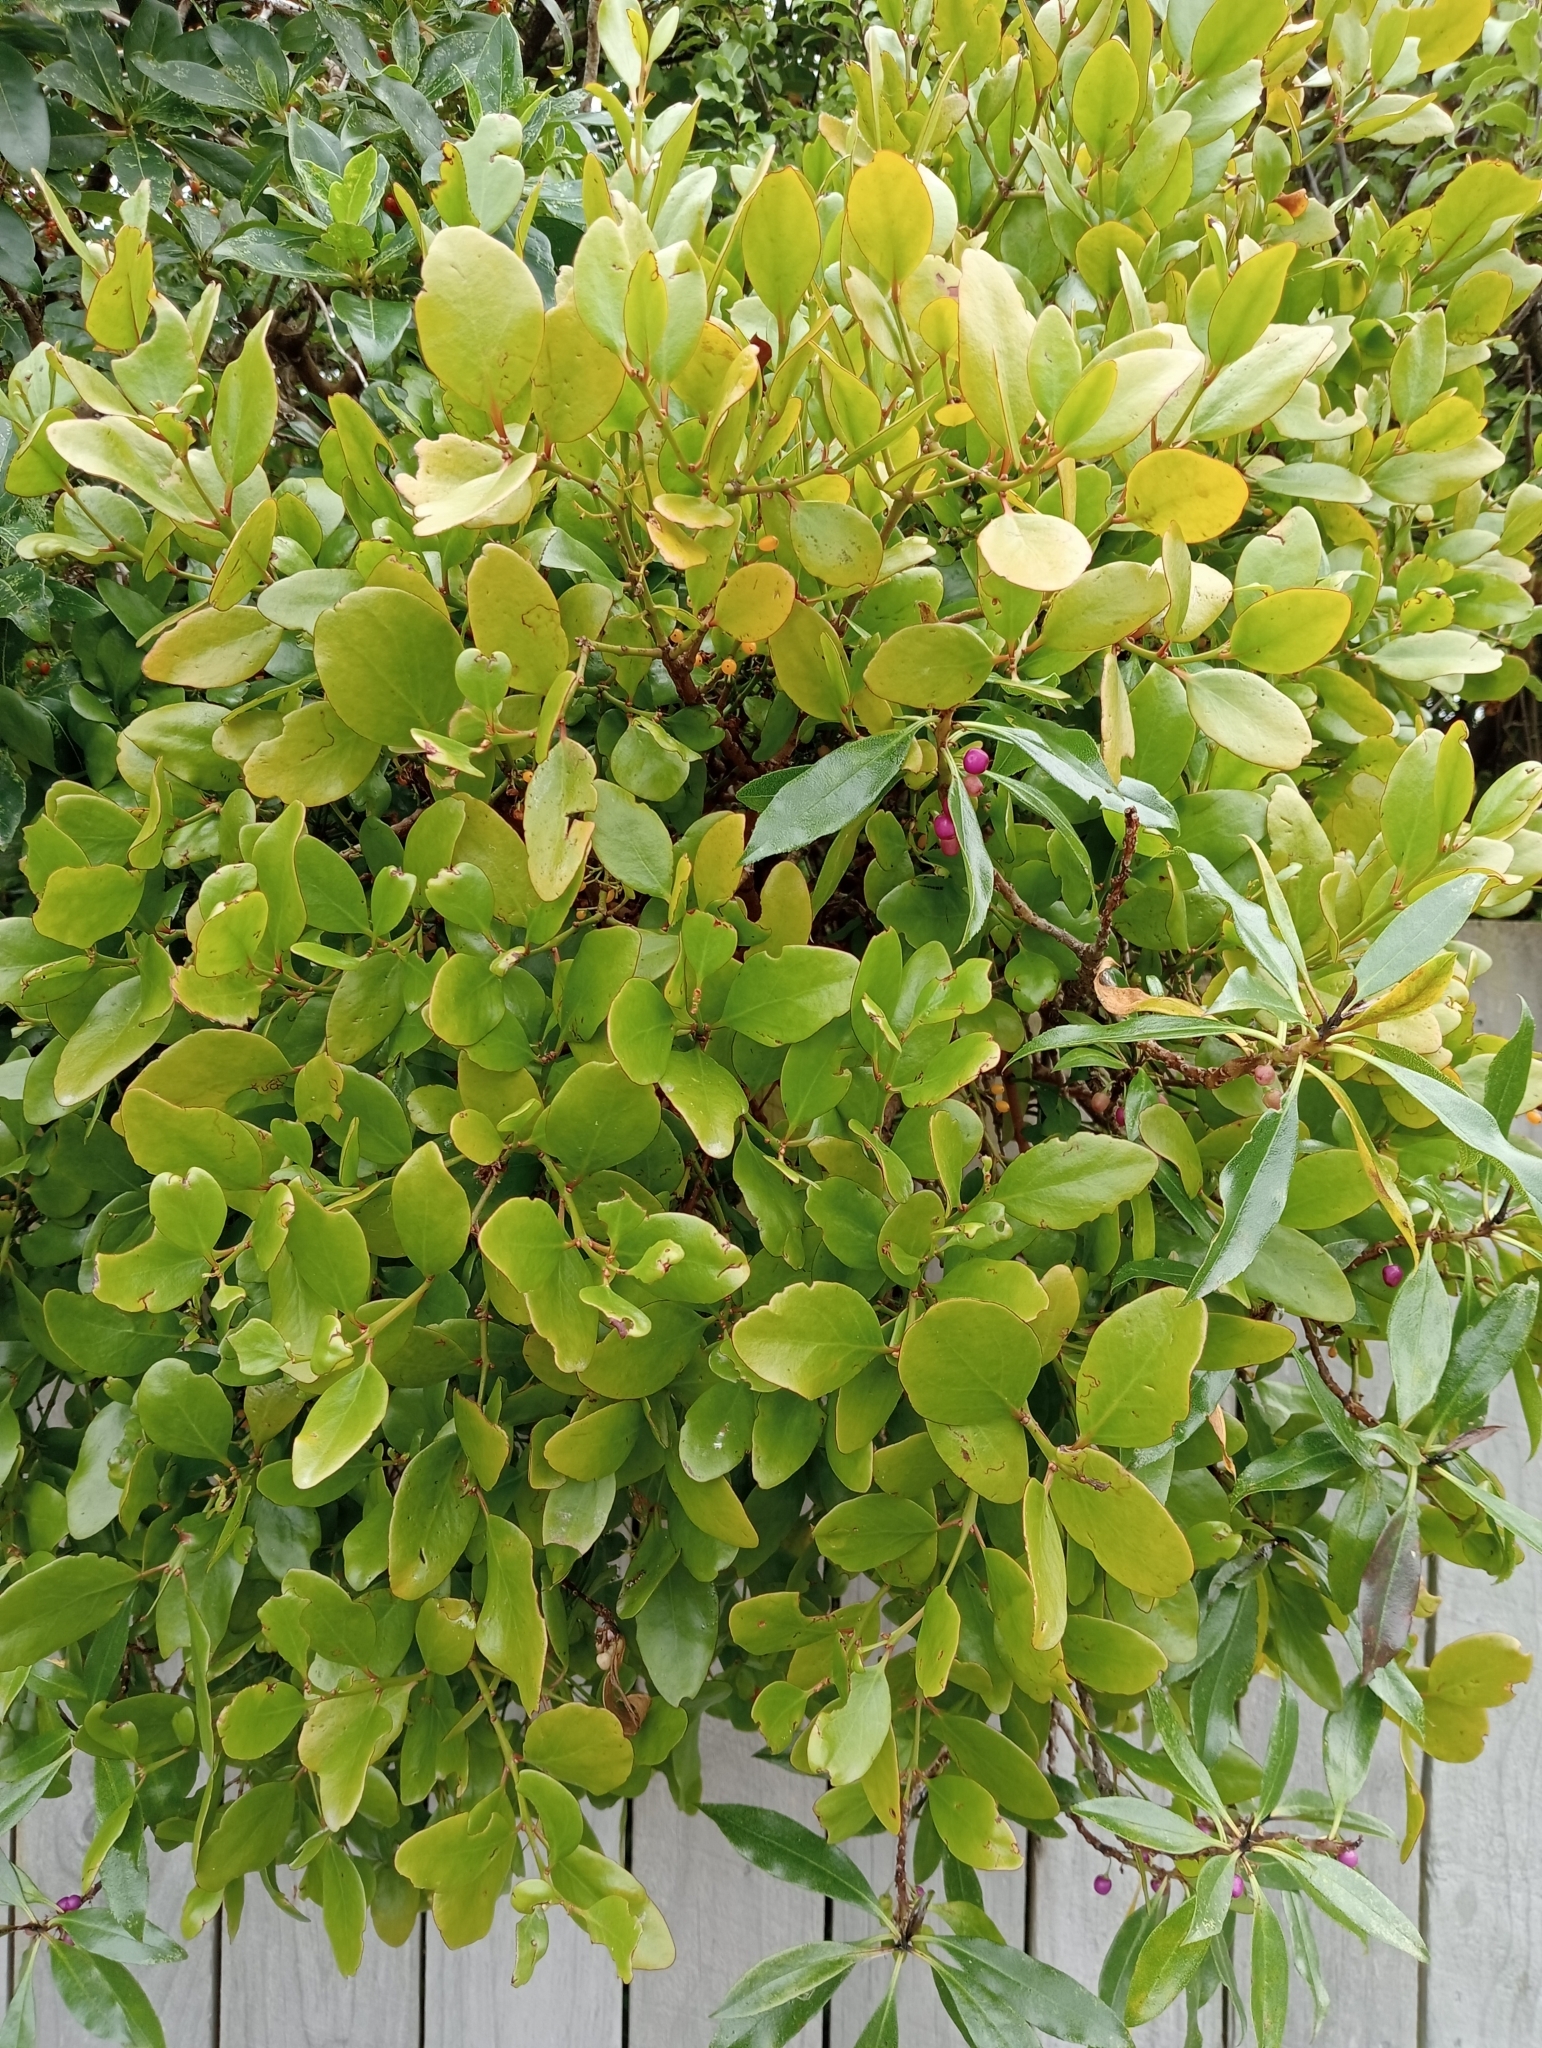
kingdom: Plantae
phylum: Tracheophyta
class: Magnoliopsida
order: Santalales
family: Loranthaceae
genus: Ileostylus
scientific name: Ileostylus micranthus
